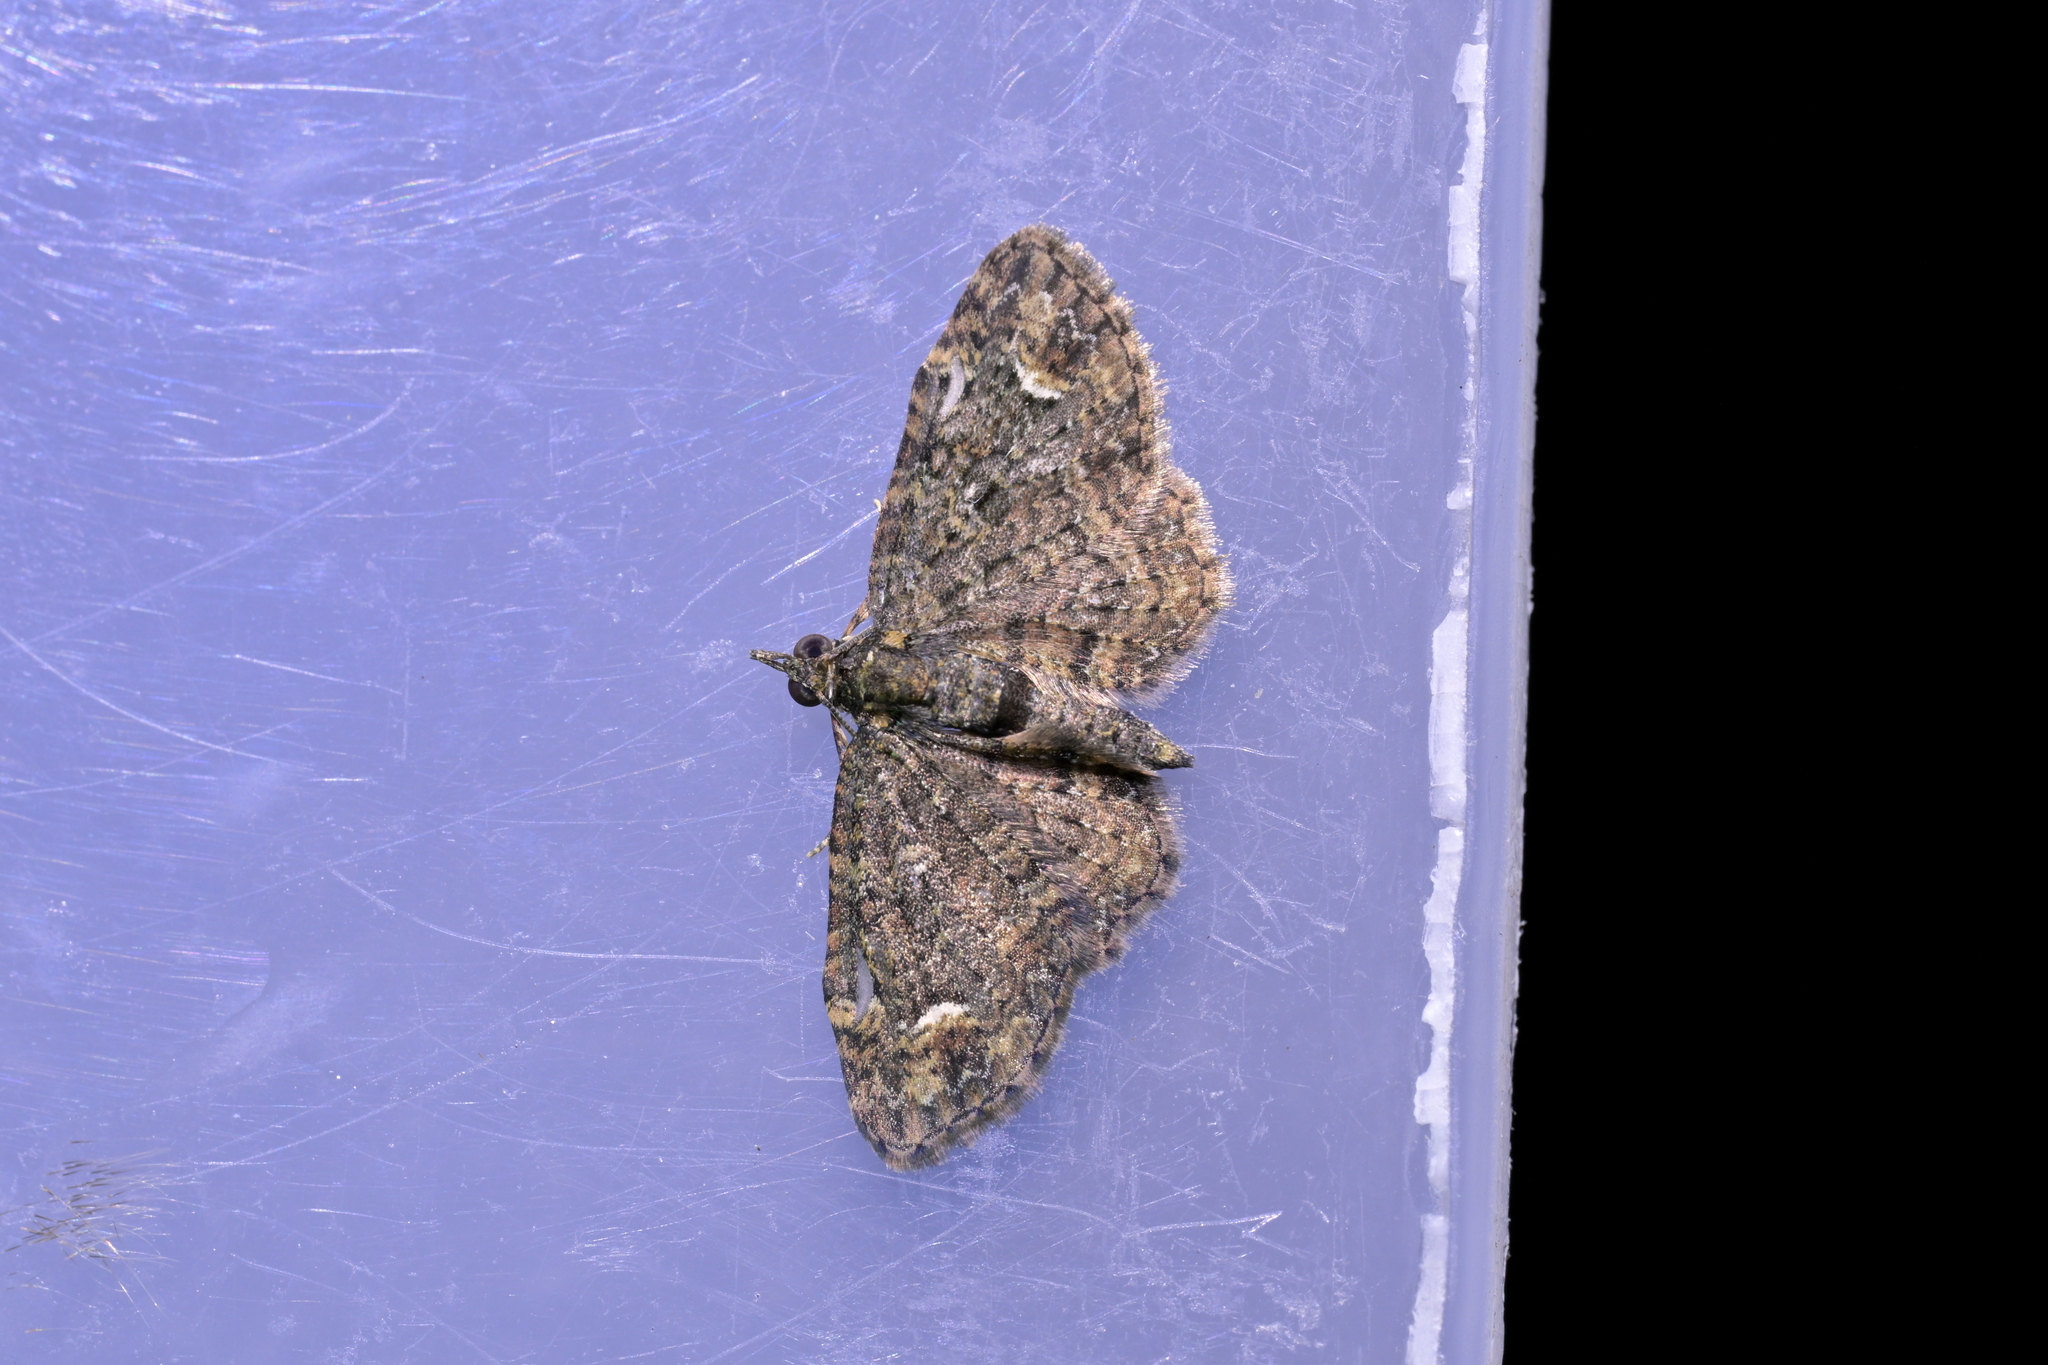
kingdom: Animalia
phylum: Arthropoda
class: Insecta
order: Lepidoptera
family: Geometridae
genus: Pasiphilodes
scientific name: Pasiphilodes testulata
